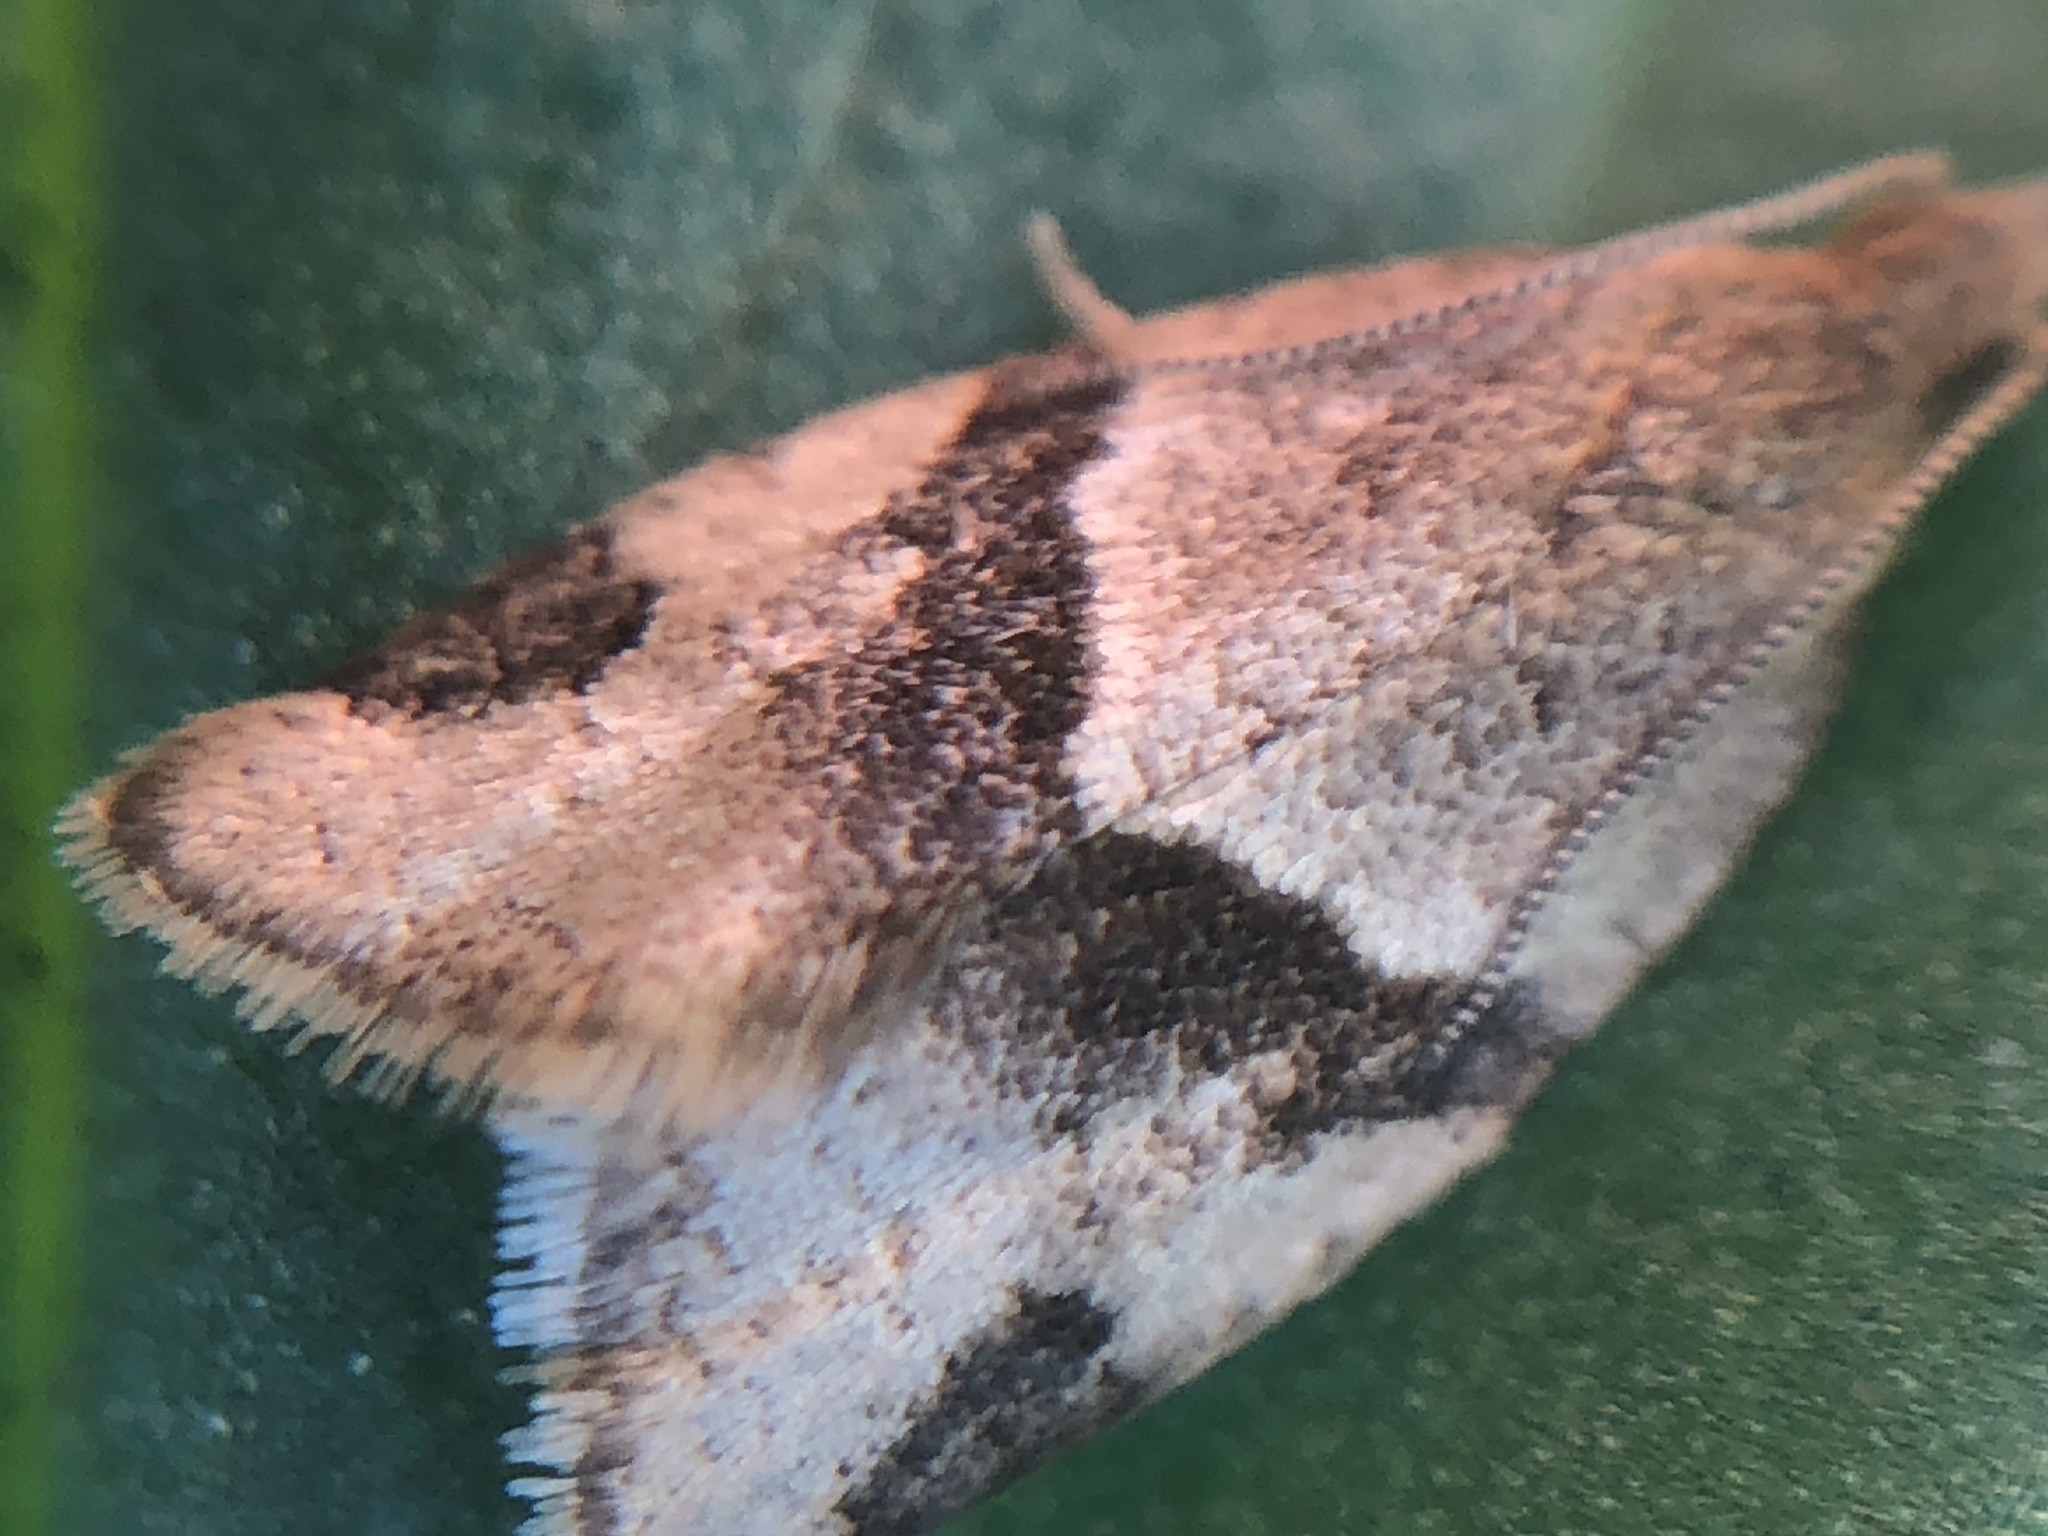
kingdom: Animalia
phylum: Arthropoda
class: Insecta
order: Lepidoptera
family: Tortricidae
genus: Clepsis
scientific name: Clepsis peritana
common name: Garden tortrix
